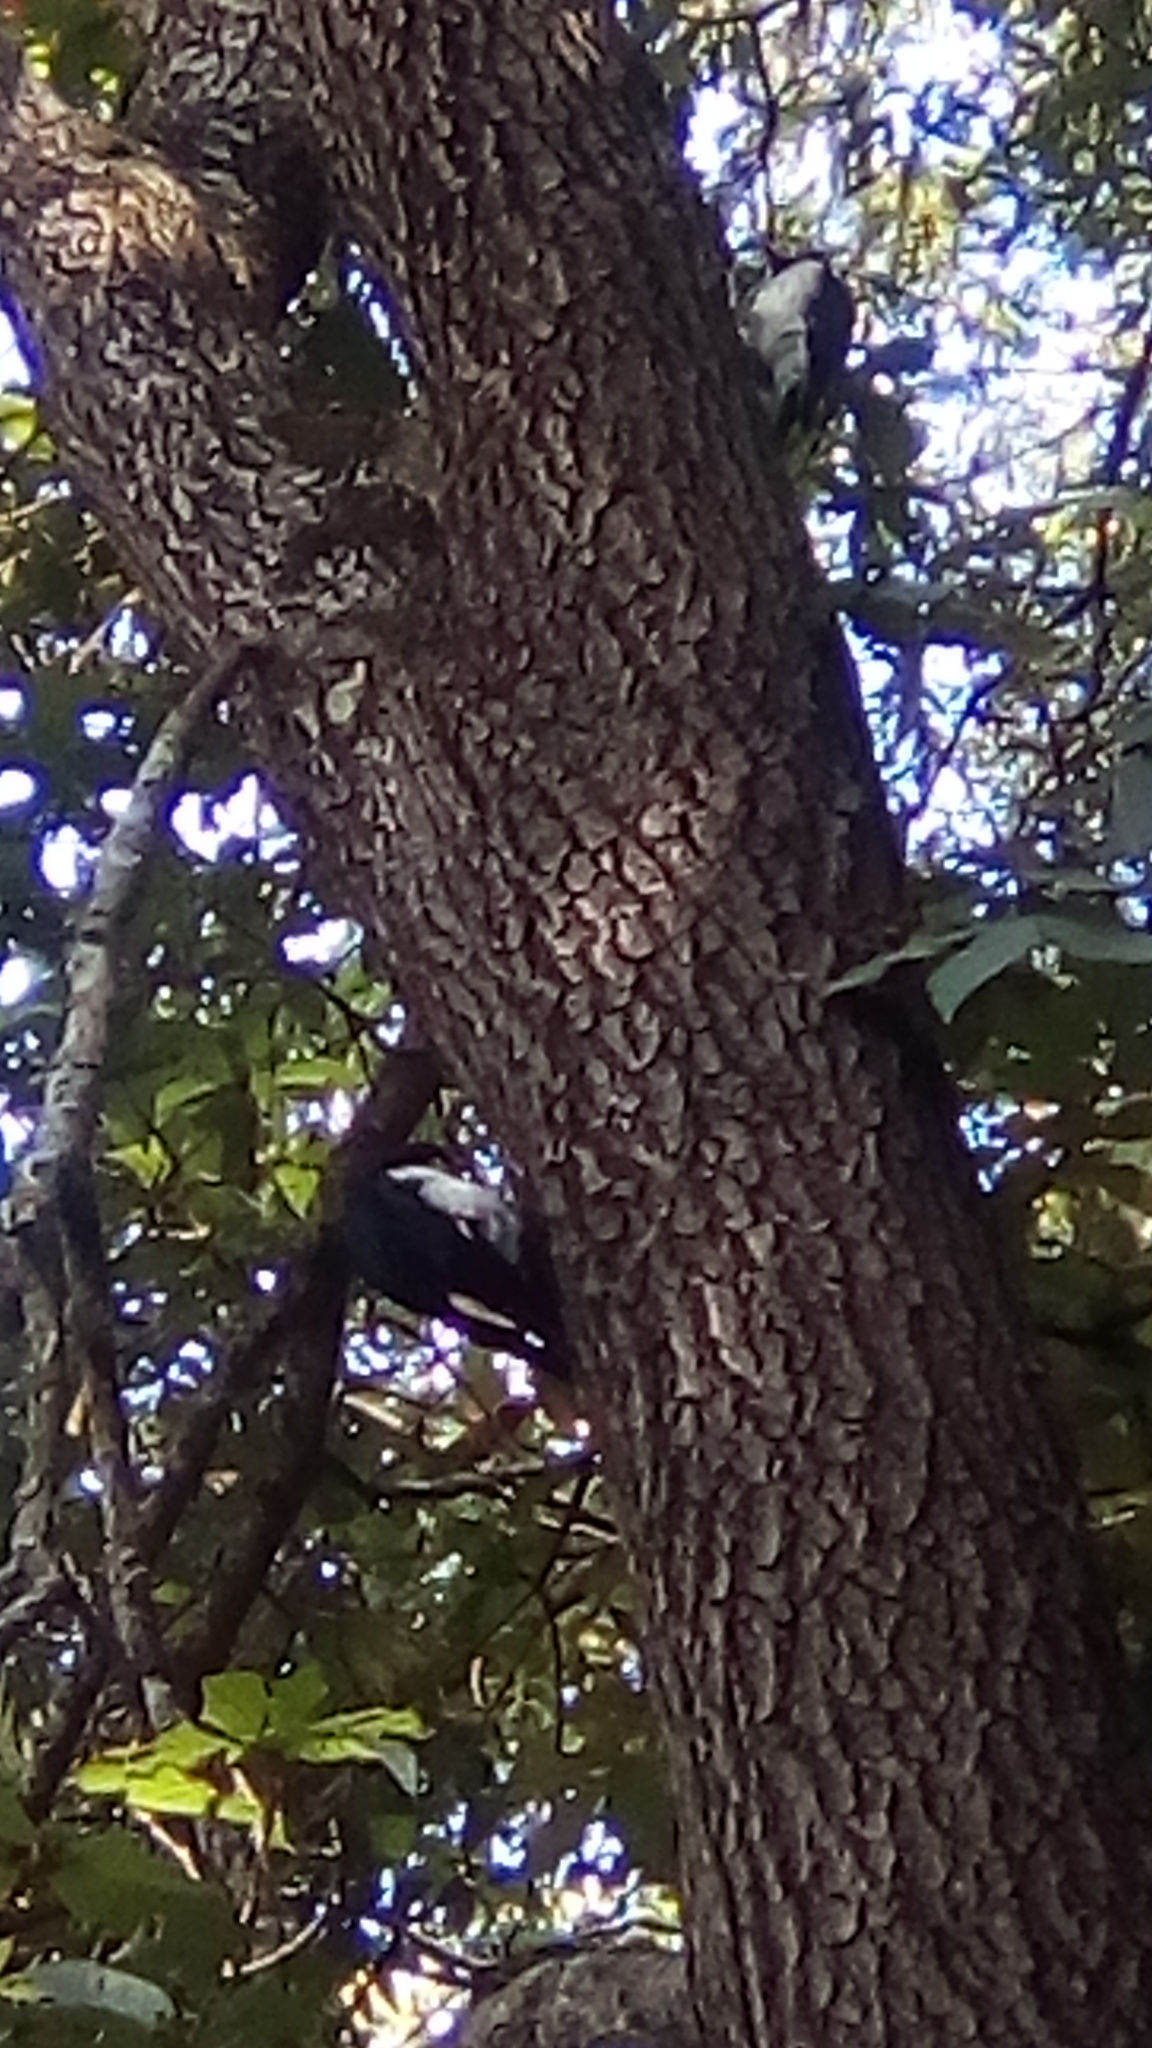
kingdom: Animalia
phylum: Chordata
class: Aves
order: Piciformes
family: Picidae
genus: Melanerpes
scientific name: Melanerpes formicivorus
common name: Acorn woodpecker
